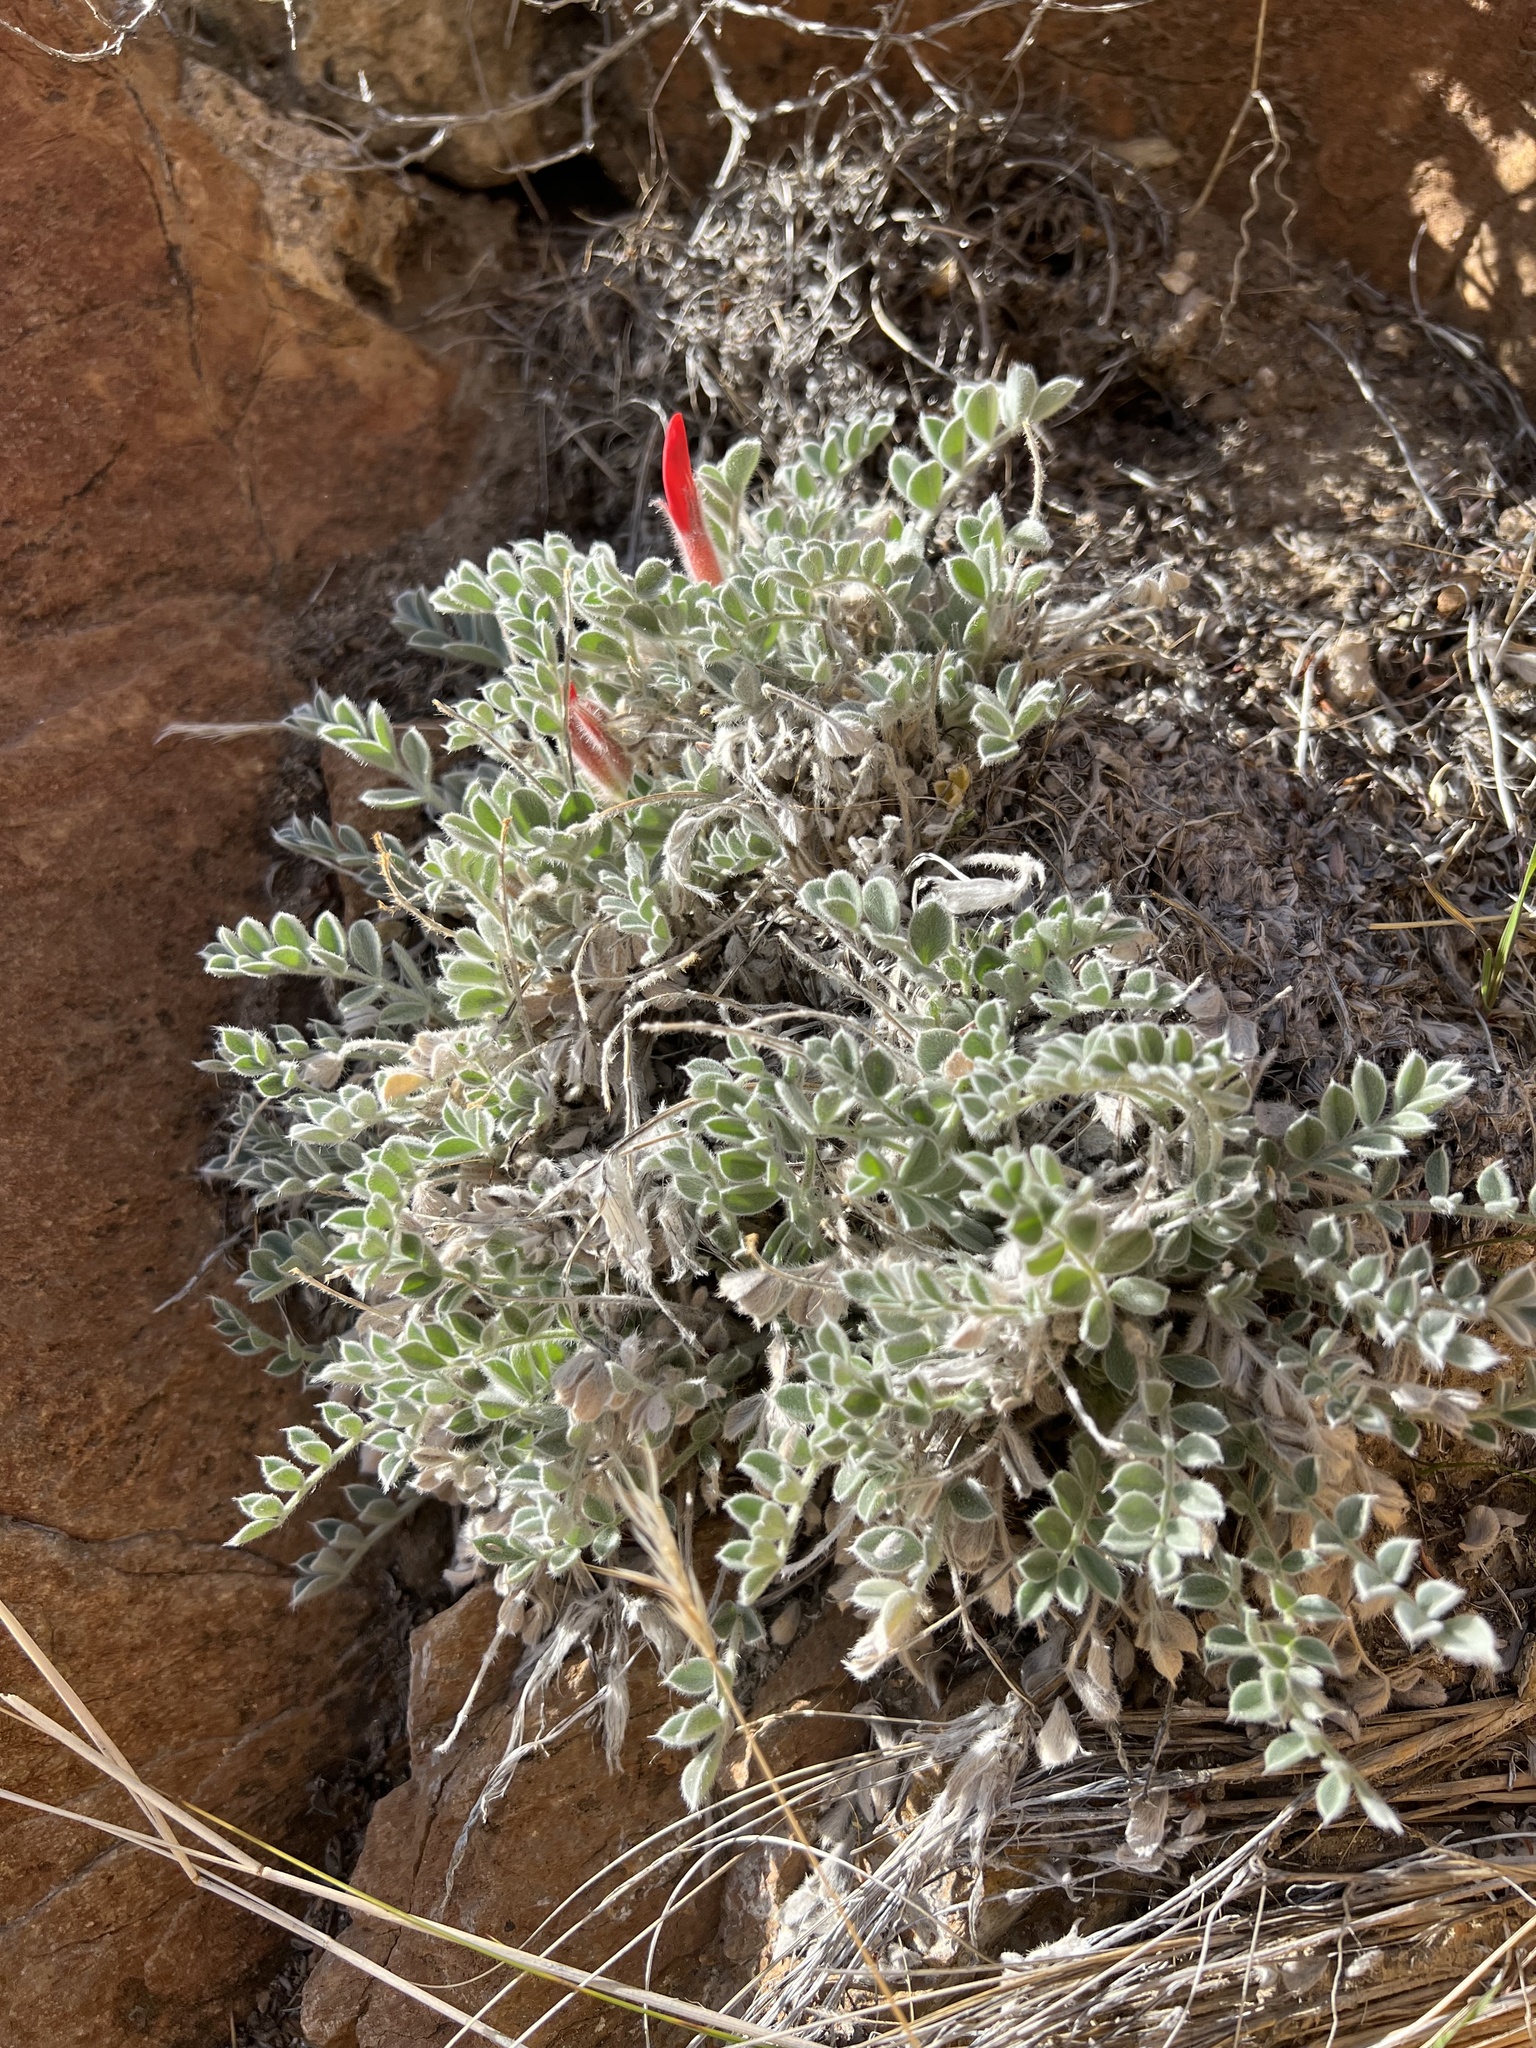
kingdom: Plantae
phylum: Tracheophyta
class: Magnoliopsida
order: Fabales
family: Fabaceae
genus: Astragalus
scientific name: Astragalus coccineus
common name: Scarlet milk-vetch
